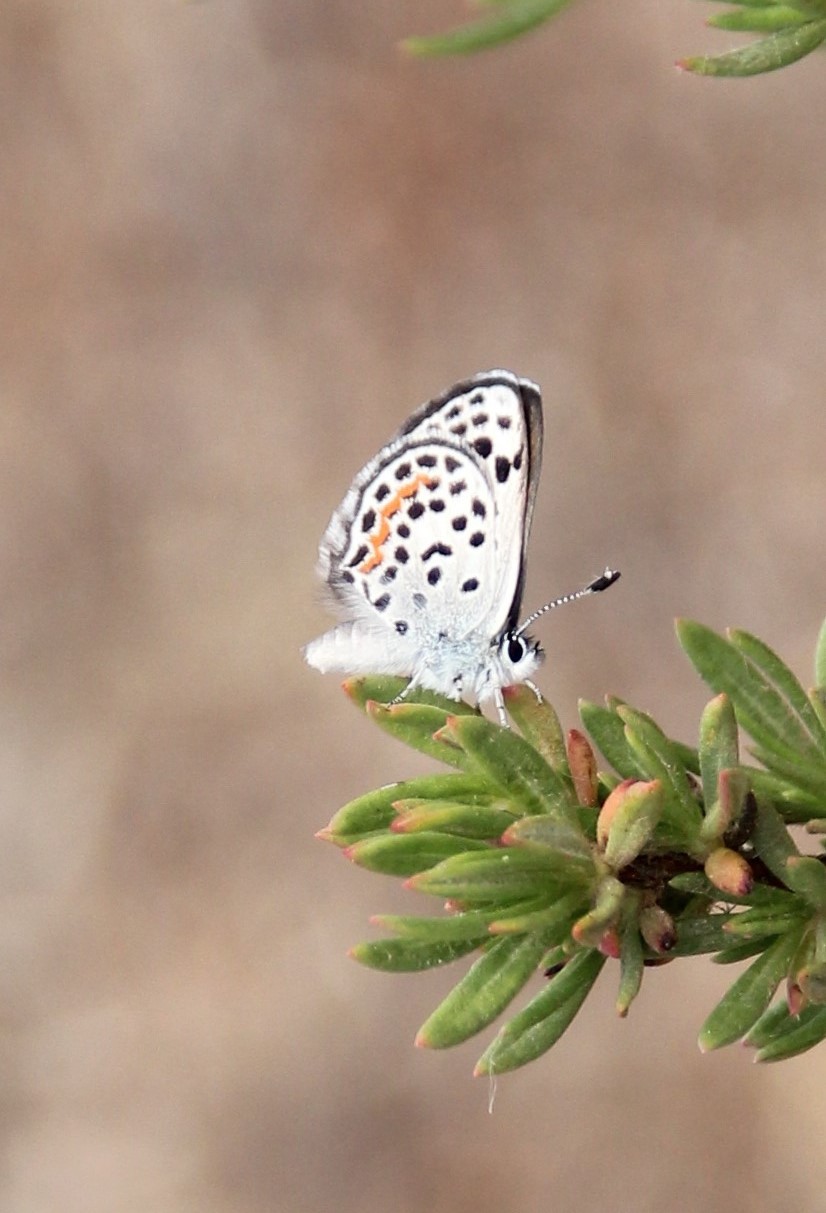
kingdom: Animalia
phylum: Arthropoda
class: Insecta
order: Lepidoptera
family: Lycaenidae
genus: Philotes
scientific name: Philotes bernardino
